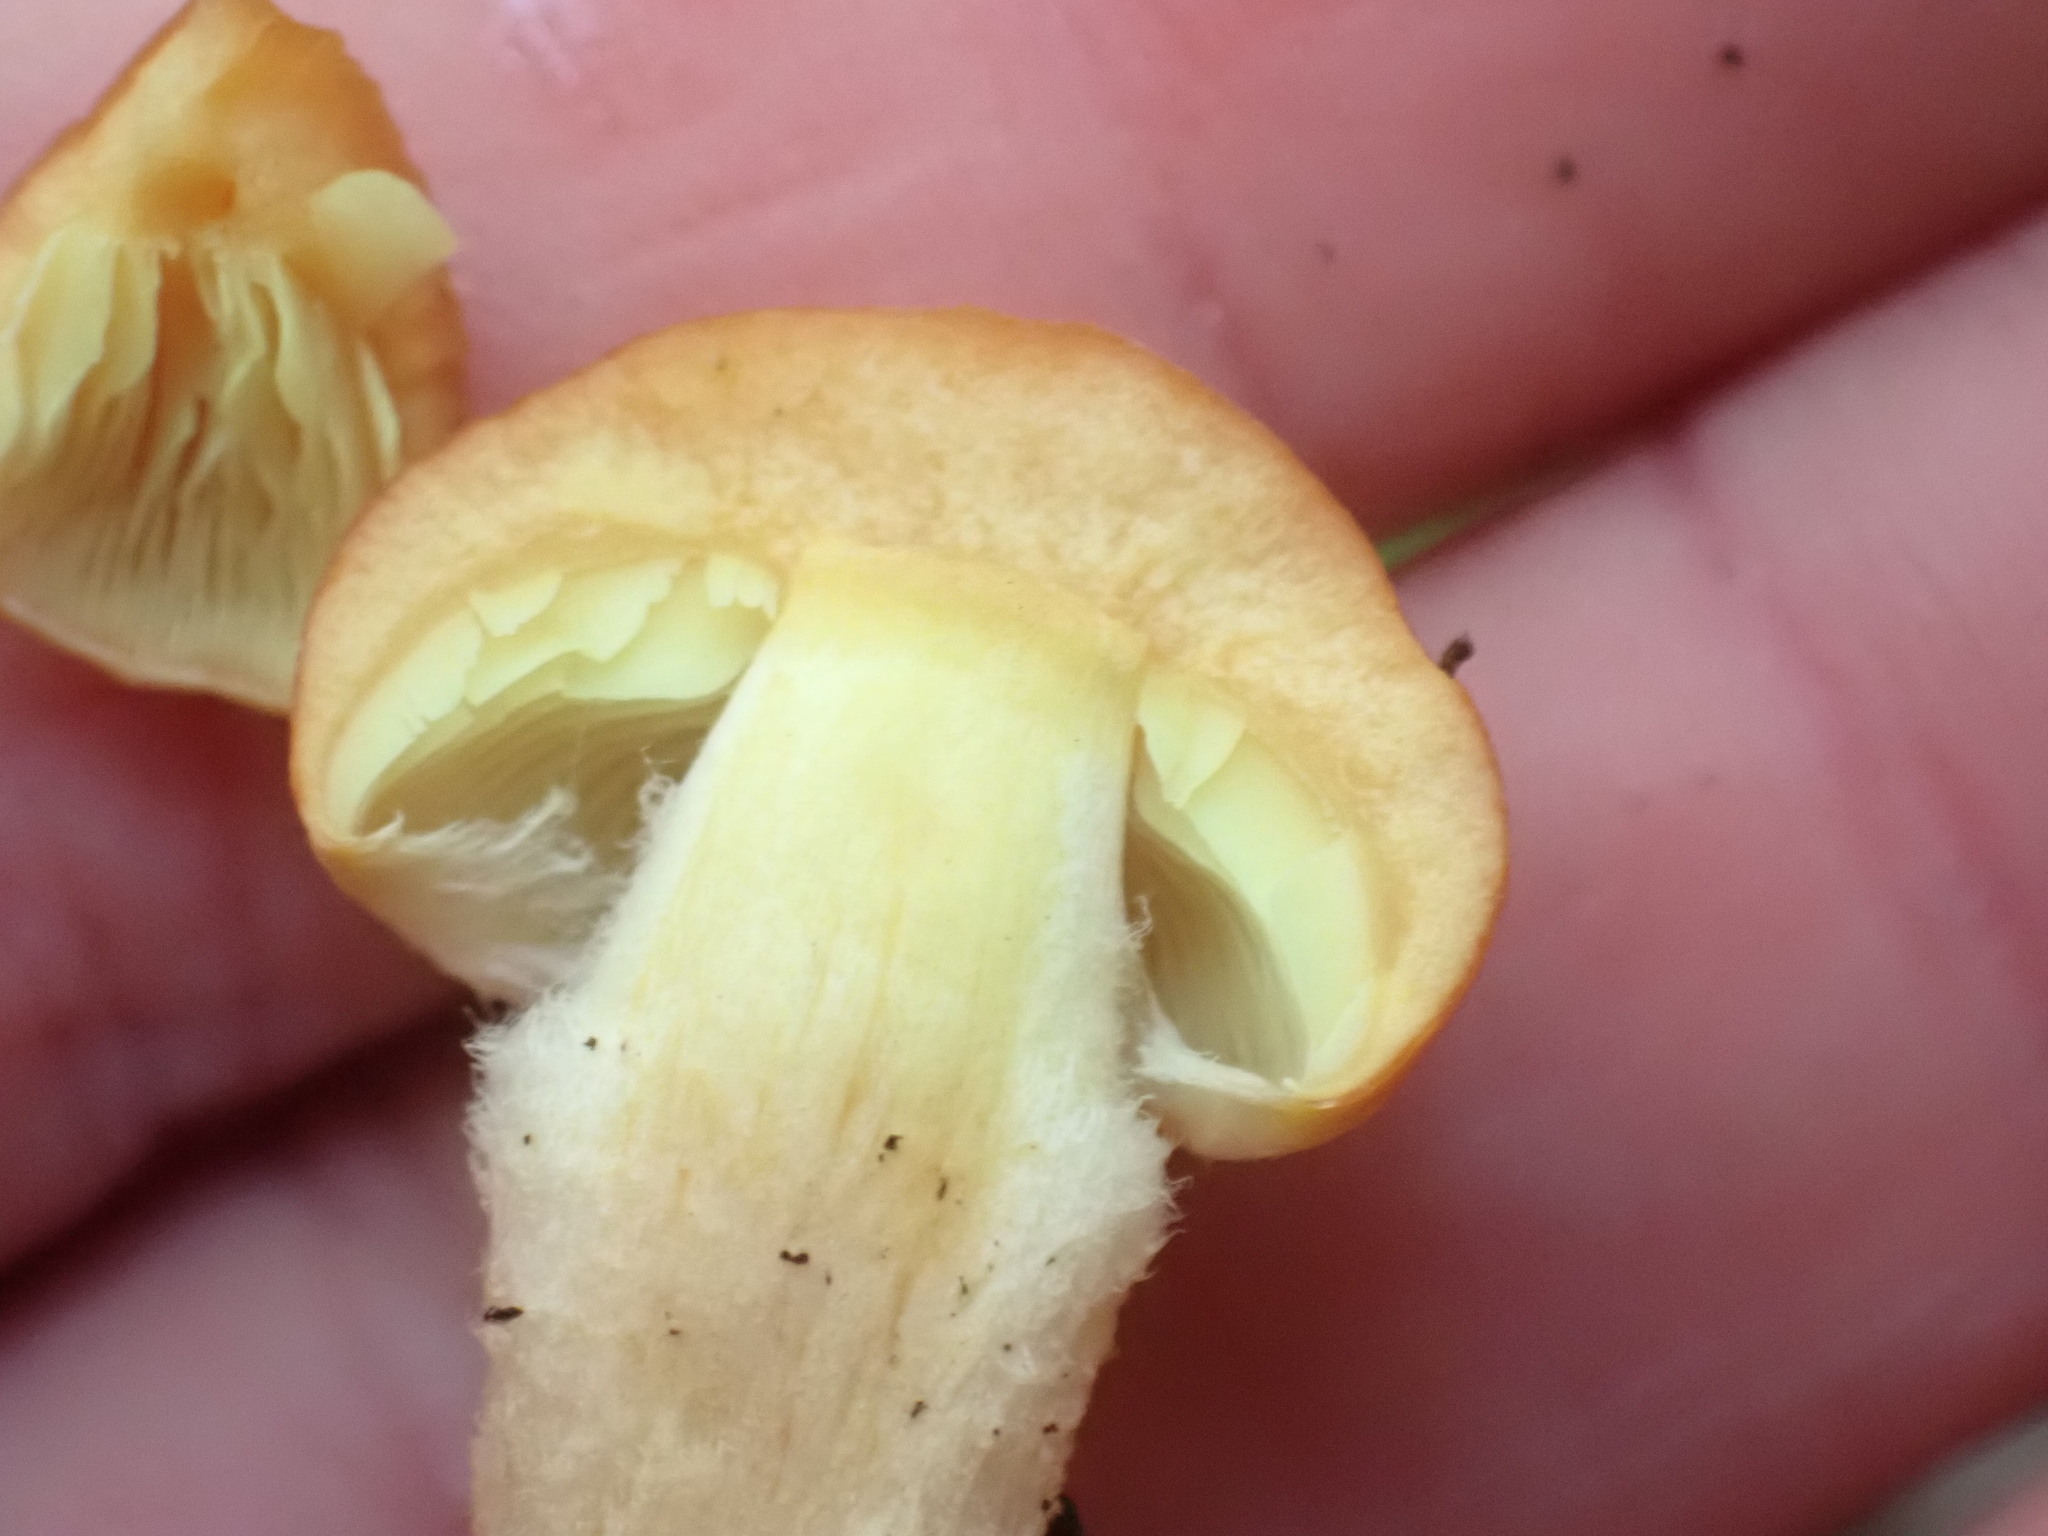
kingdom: Fungi
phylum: Basidiomycota
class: Agaricomycetes
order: Agaricales
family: Strophariaceae
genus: Hypholoma
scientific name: Hypholoma australianum
